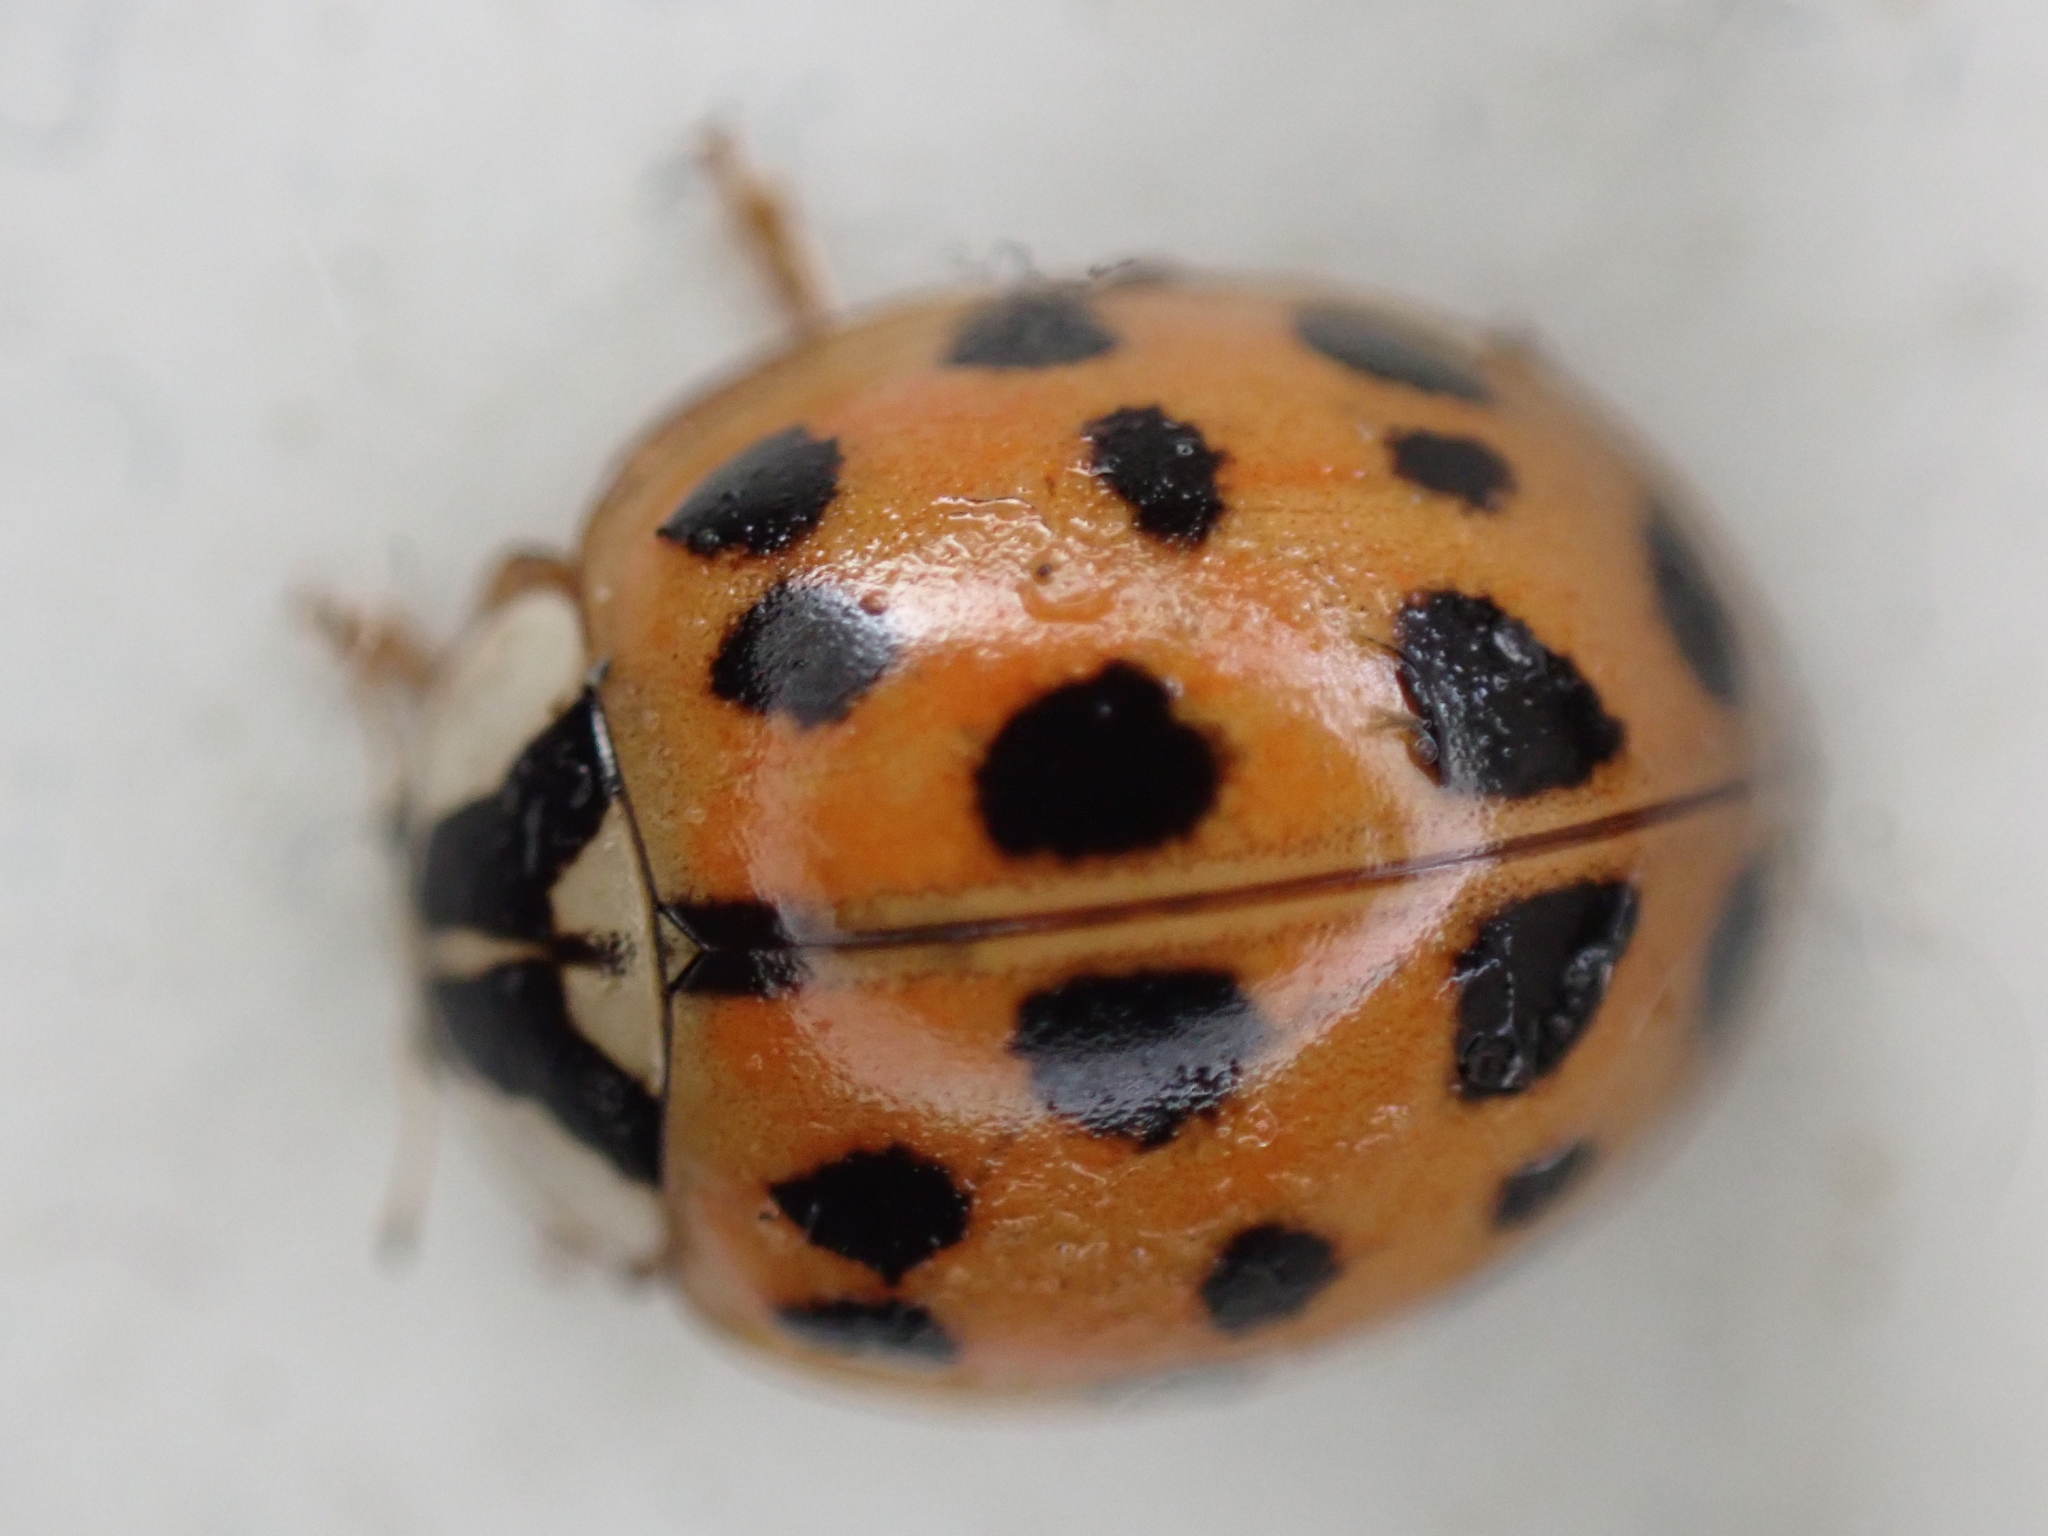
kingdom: Animalia
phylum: Arthropoda
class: Insecta
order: Coleoptera
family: Coccinellidae
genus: Harmonia
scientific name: Harmonia axyridis
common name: Harlequin ladybird
